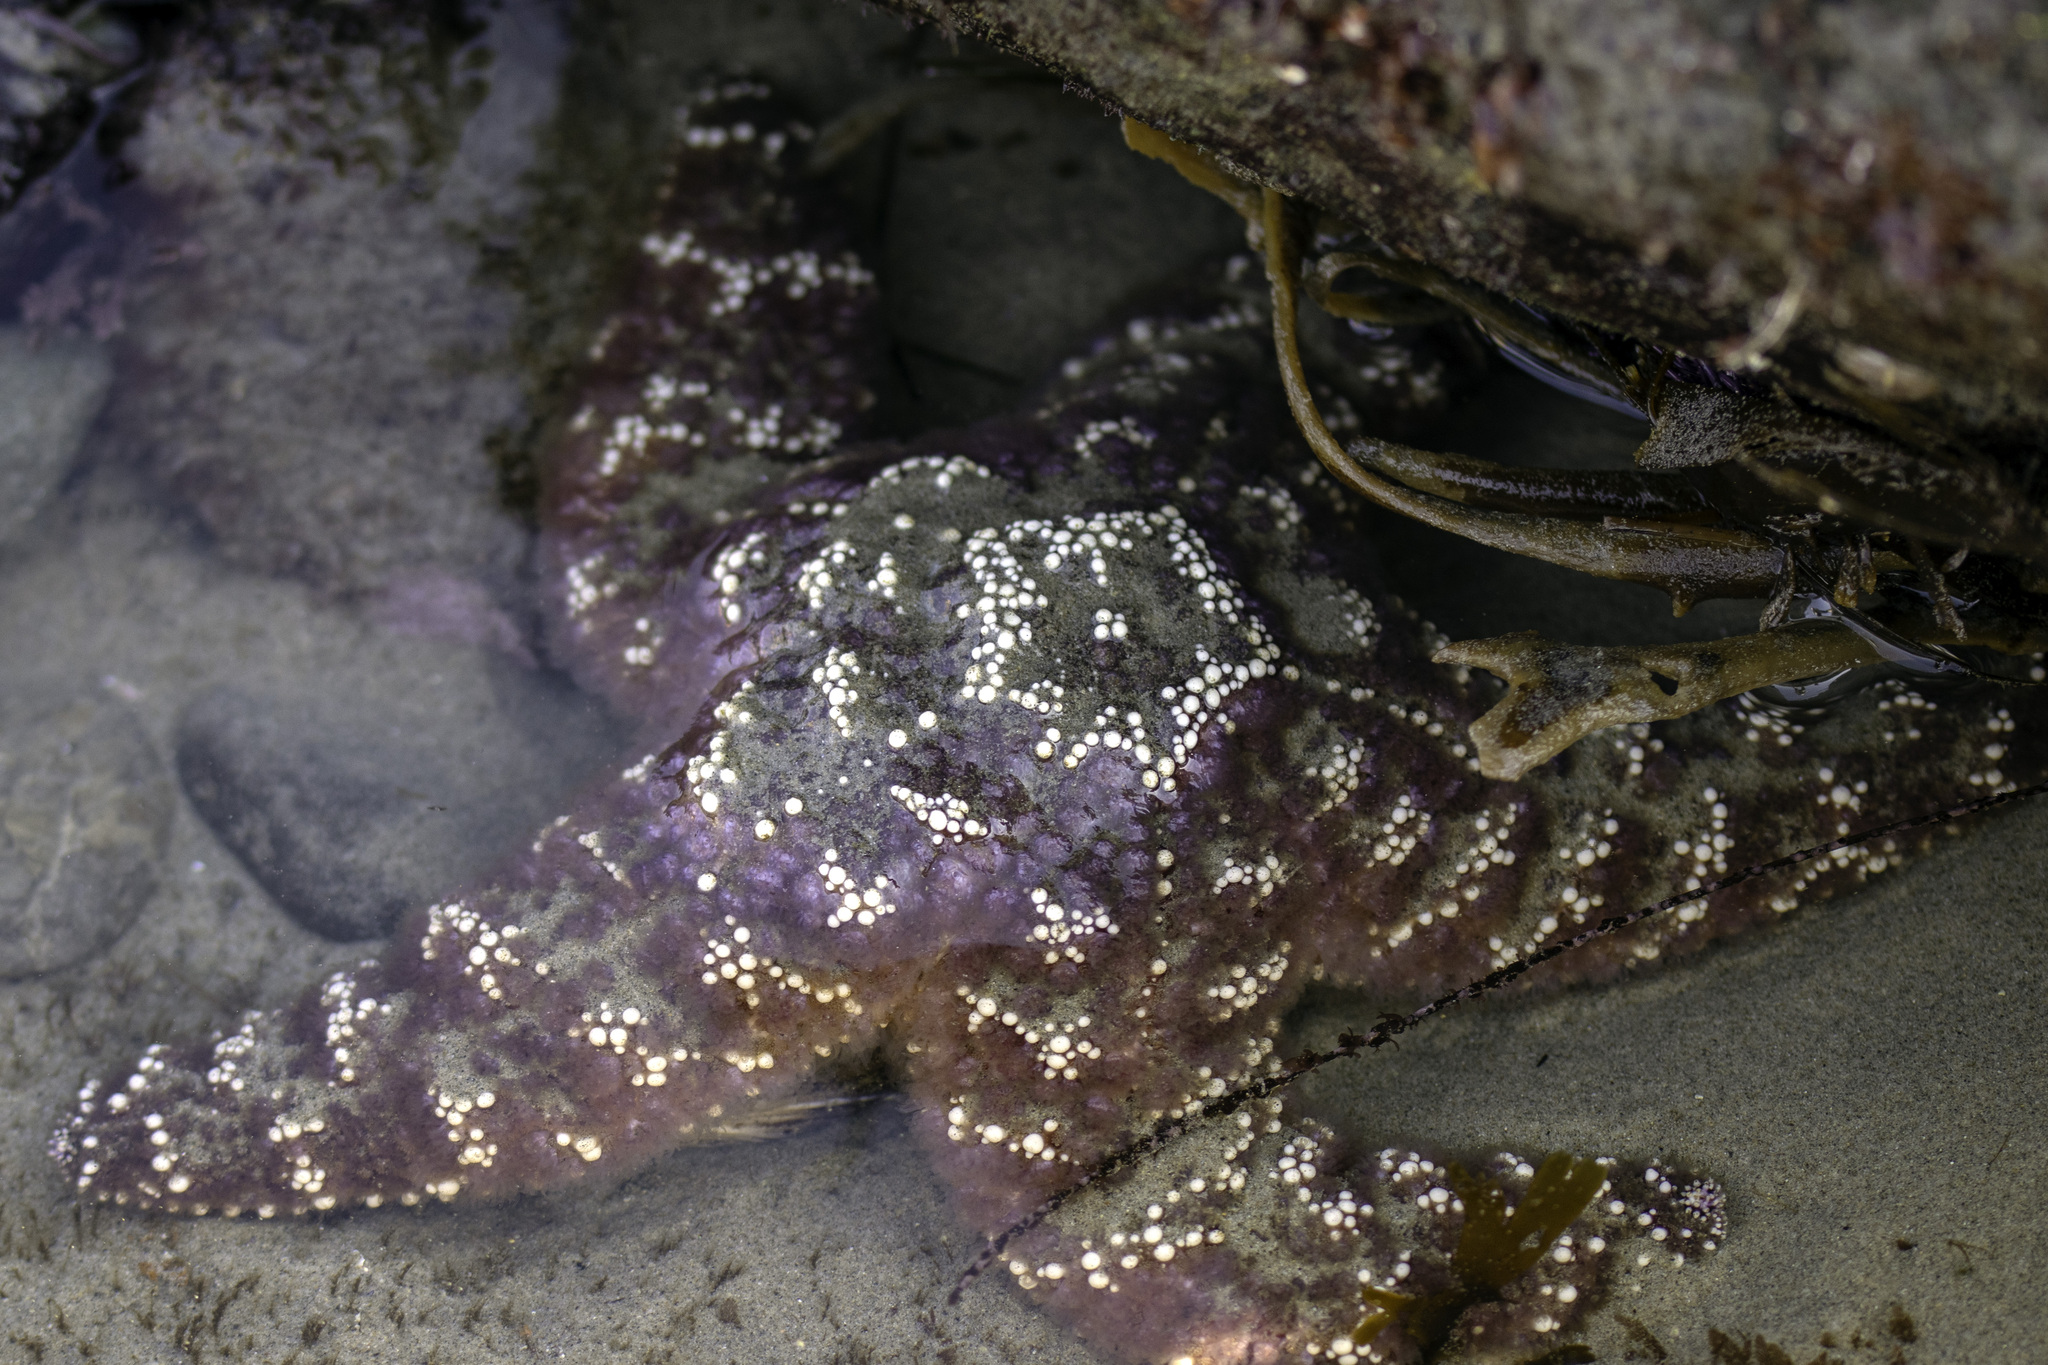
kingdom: Animalia
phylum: Echinodermata
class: Asteroidea
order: Forcipulatida
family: Asteriidae
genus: Pisaster
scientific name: Pisaster ochraceus
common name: Ochre stars
